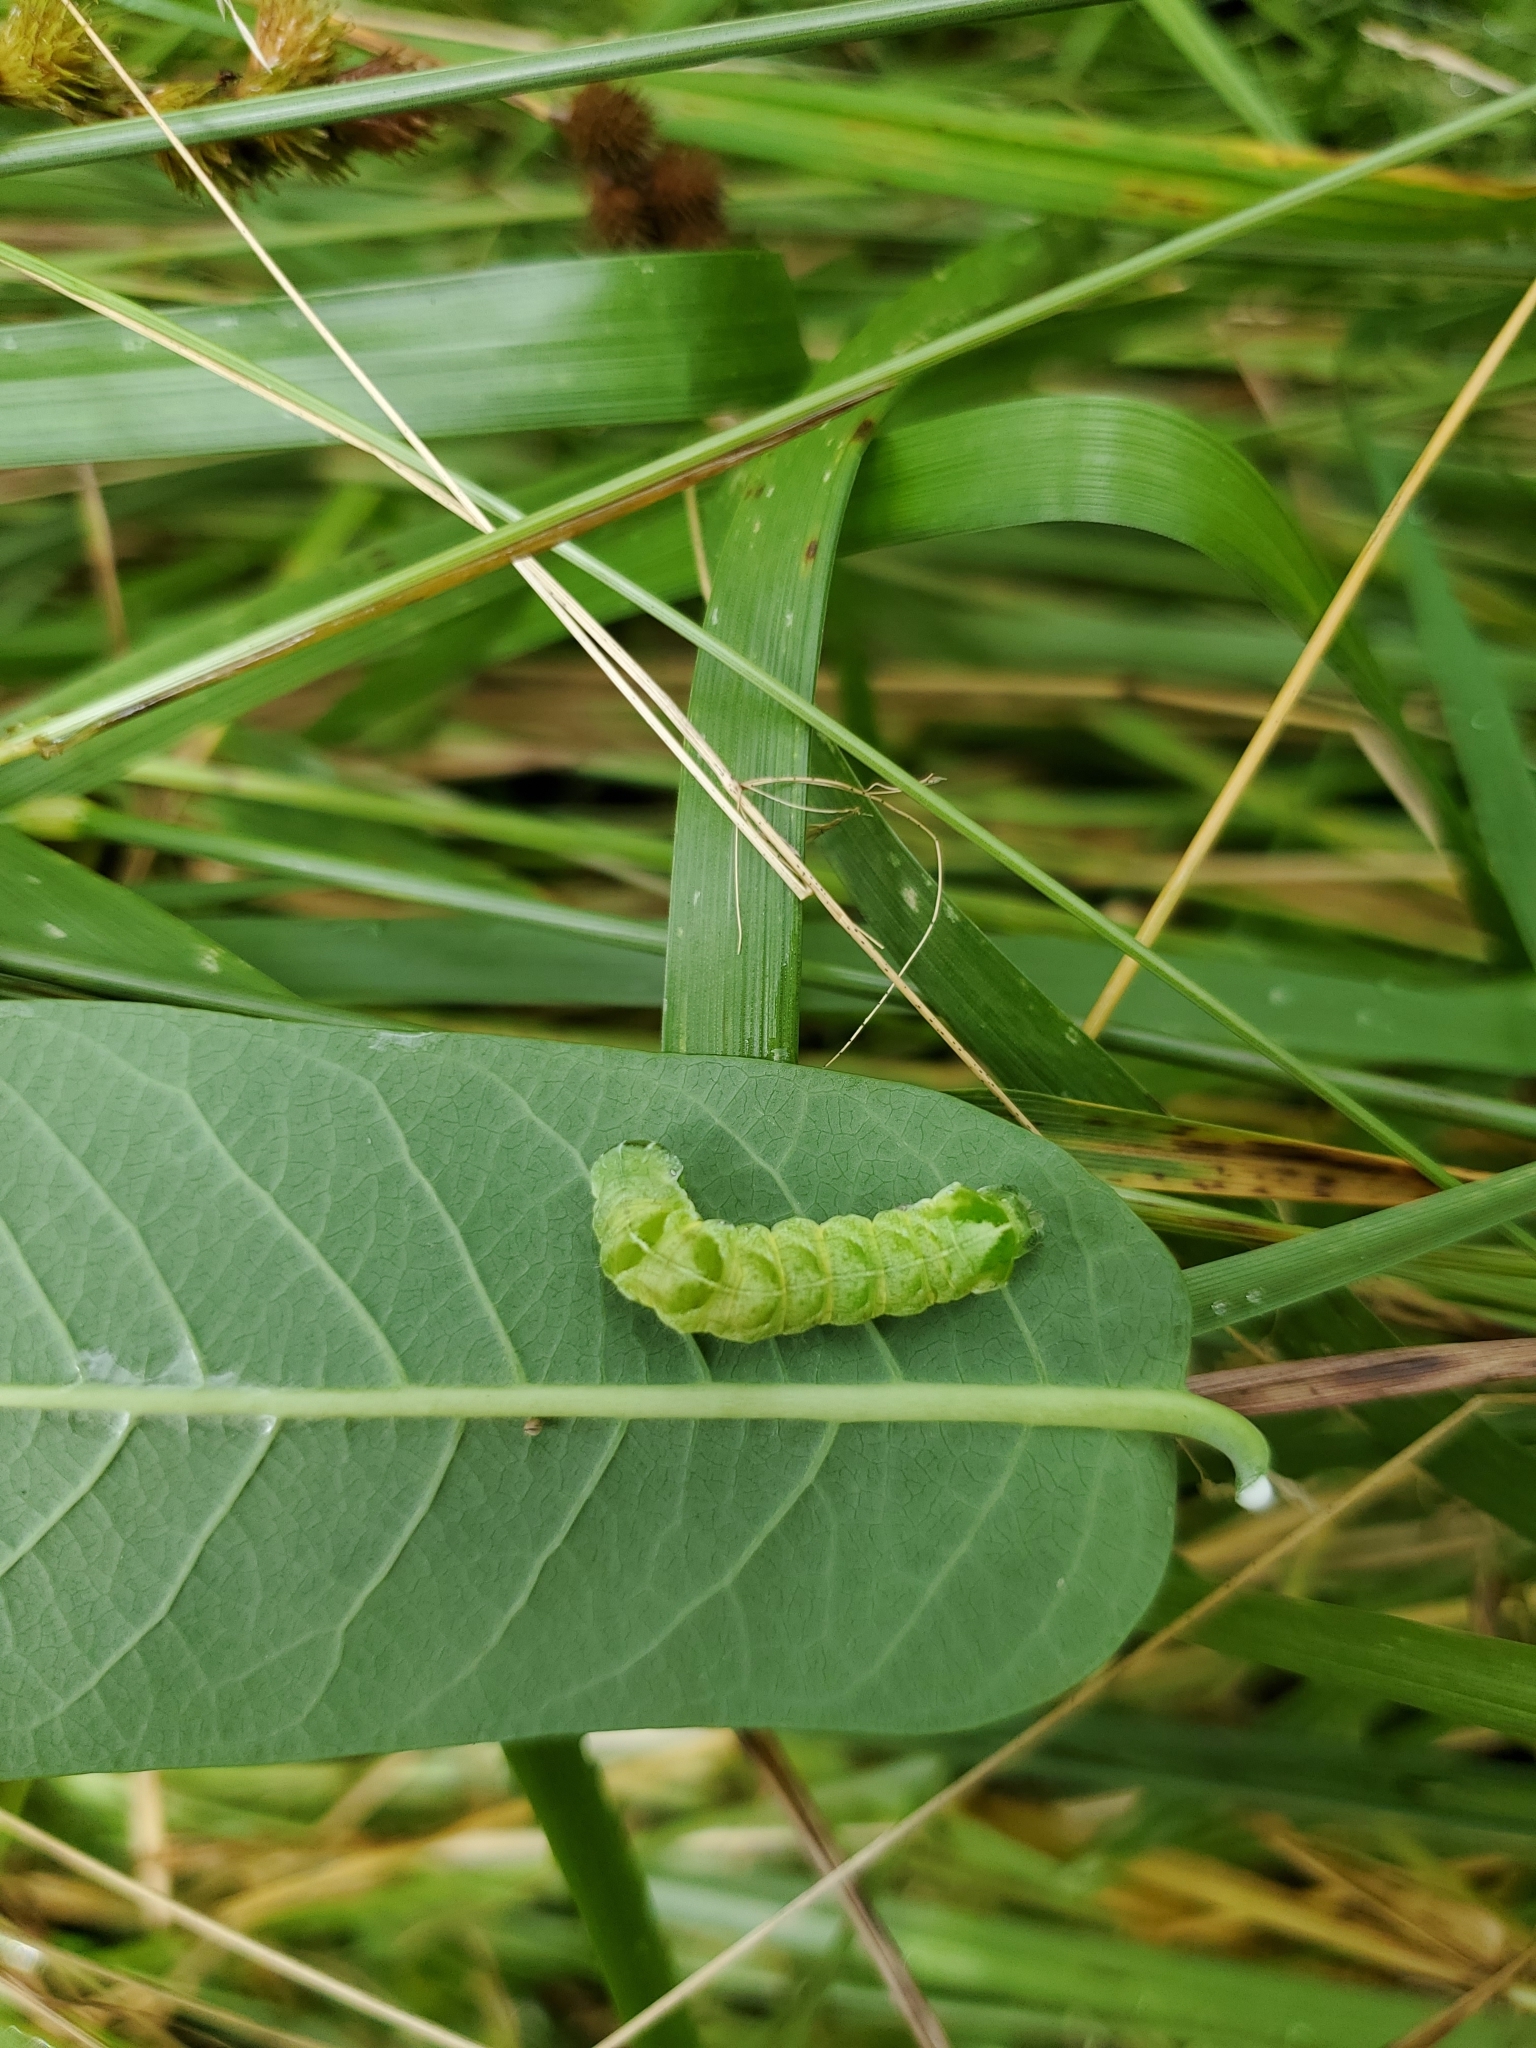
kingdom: Animalia
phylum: Arthropoda
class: Insecta
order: Lepidoptera
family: Noctuidae
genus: Melanchra
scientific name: Melanchra adjuncta
